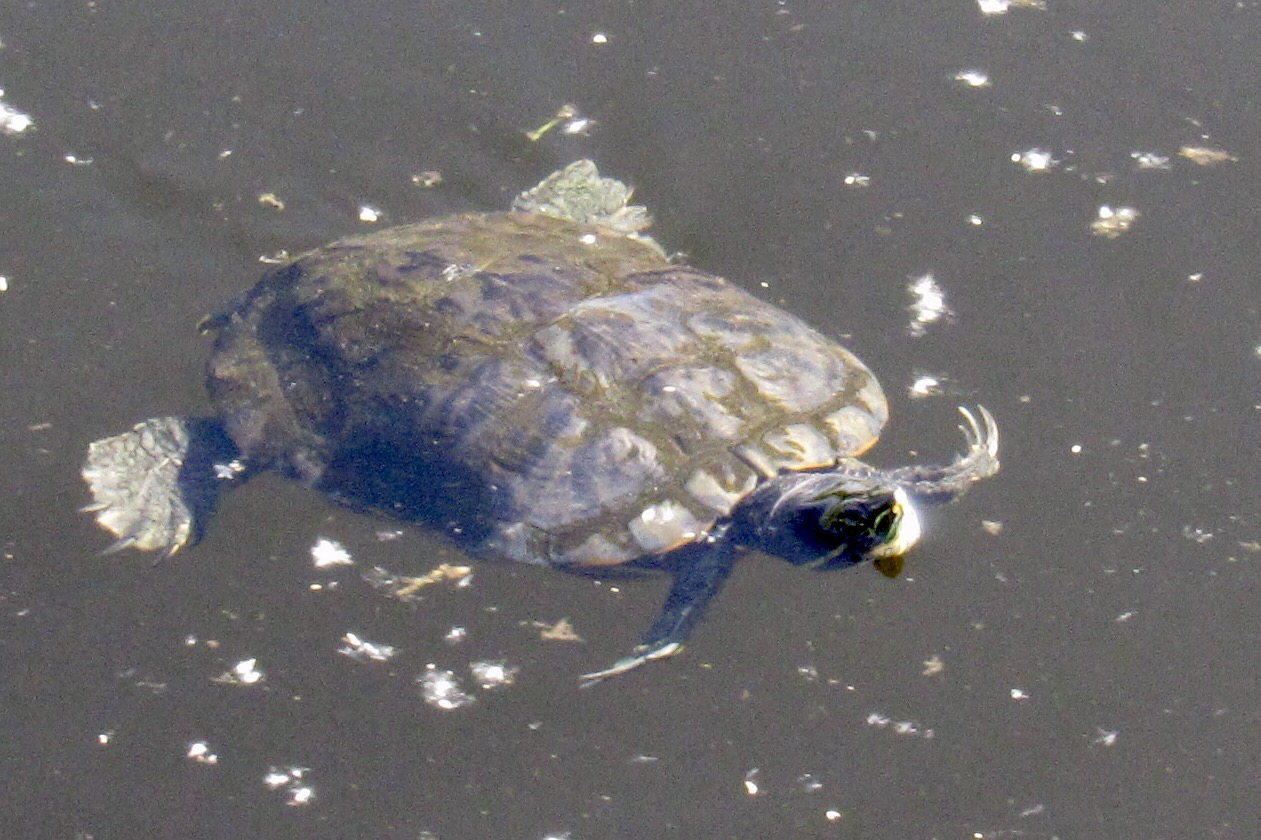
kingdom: Animalia
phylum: Chordata
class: Testudines
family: Emydidae
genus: Trachemys
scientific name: Trachemys scripta
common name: Slider
